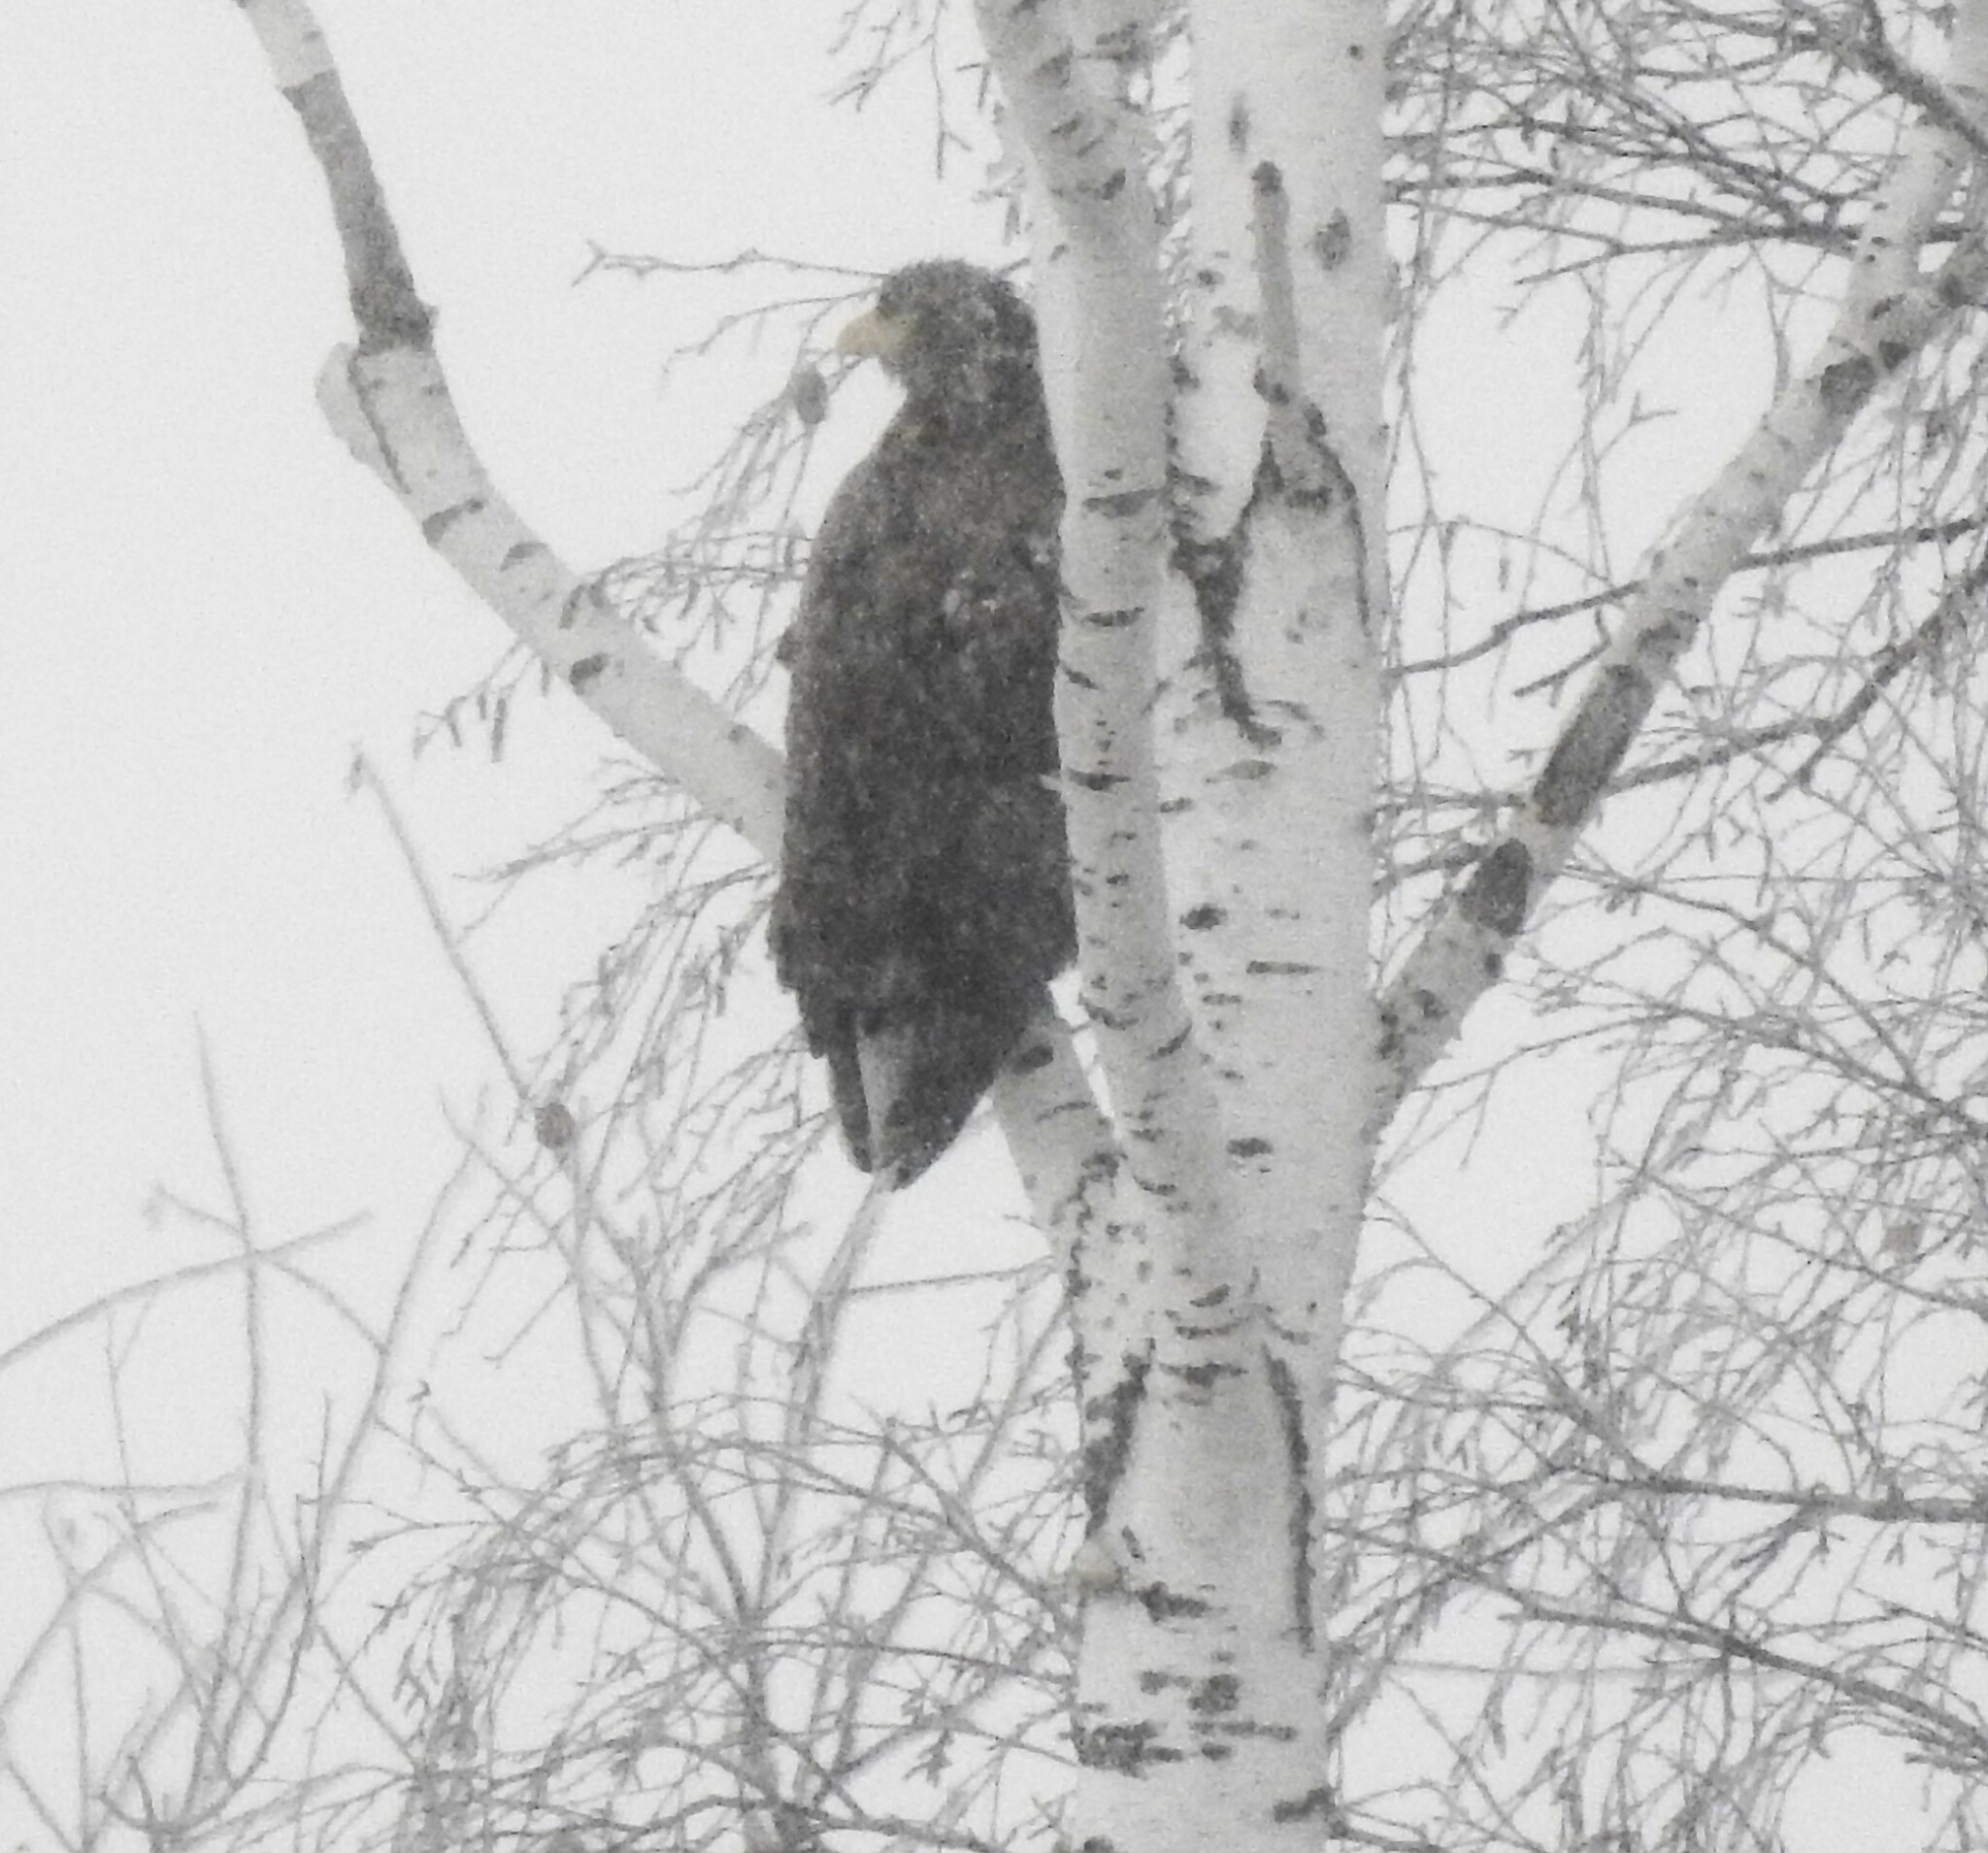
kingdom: Animalia
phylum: Chordata
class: Aves
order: Accipitriformes
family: Accipitridae
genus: Haliaeetus
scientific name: Haliaeetus albicilla
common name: White-tailed eagle
